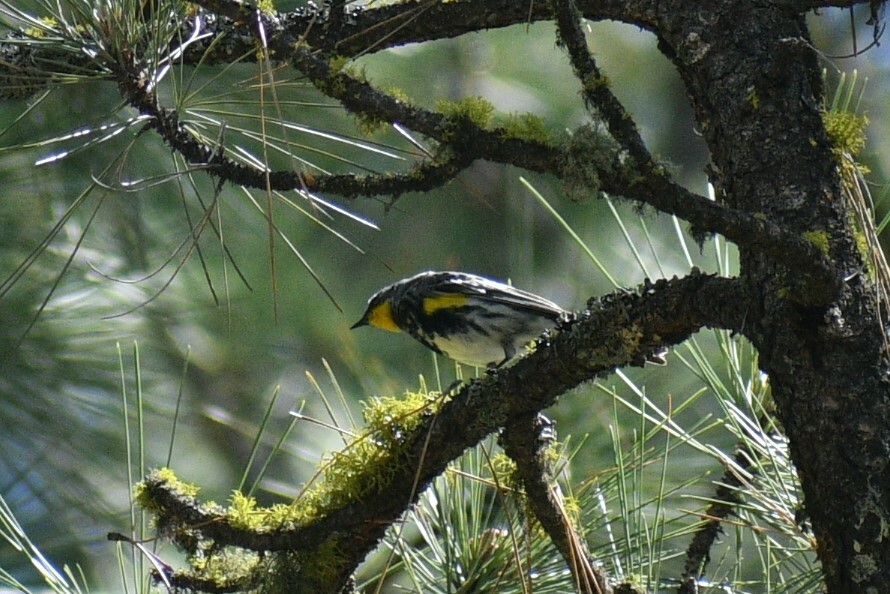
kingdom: Animalia
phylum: Chordata
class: Aves
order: Passeriformes
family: Parulidae
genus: Setophaga
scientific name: Setophaga auduboni
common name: Audubon's warbler
